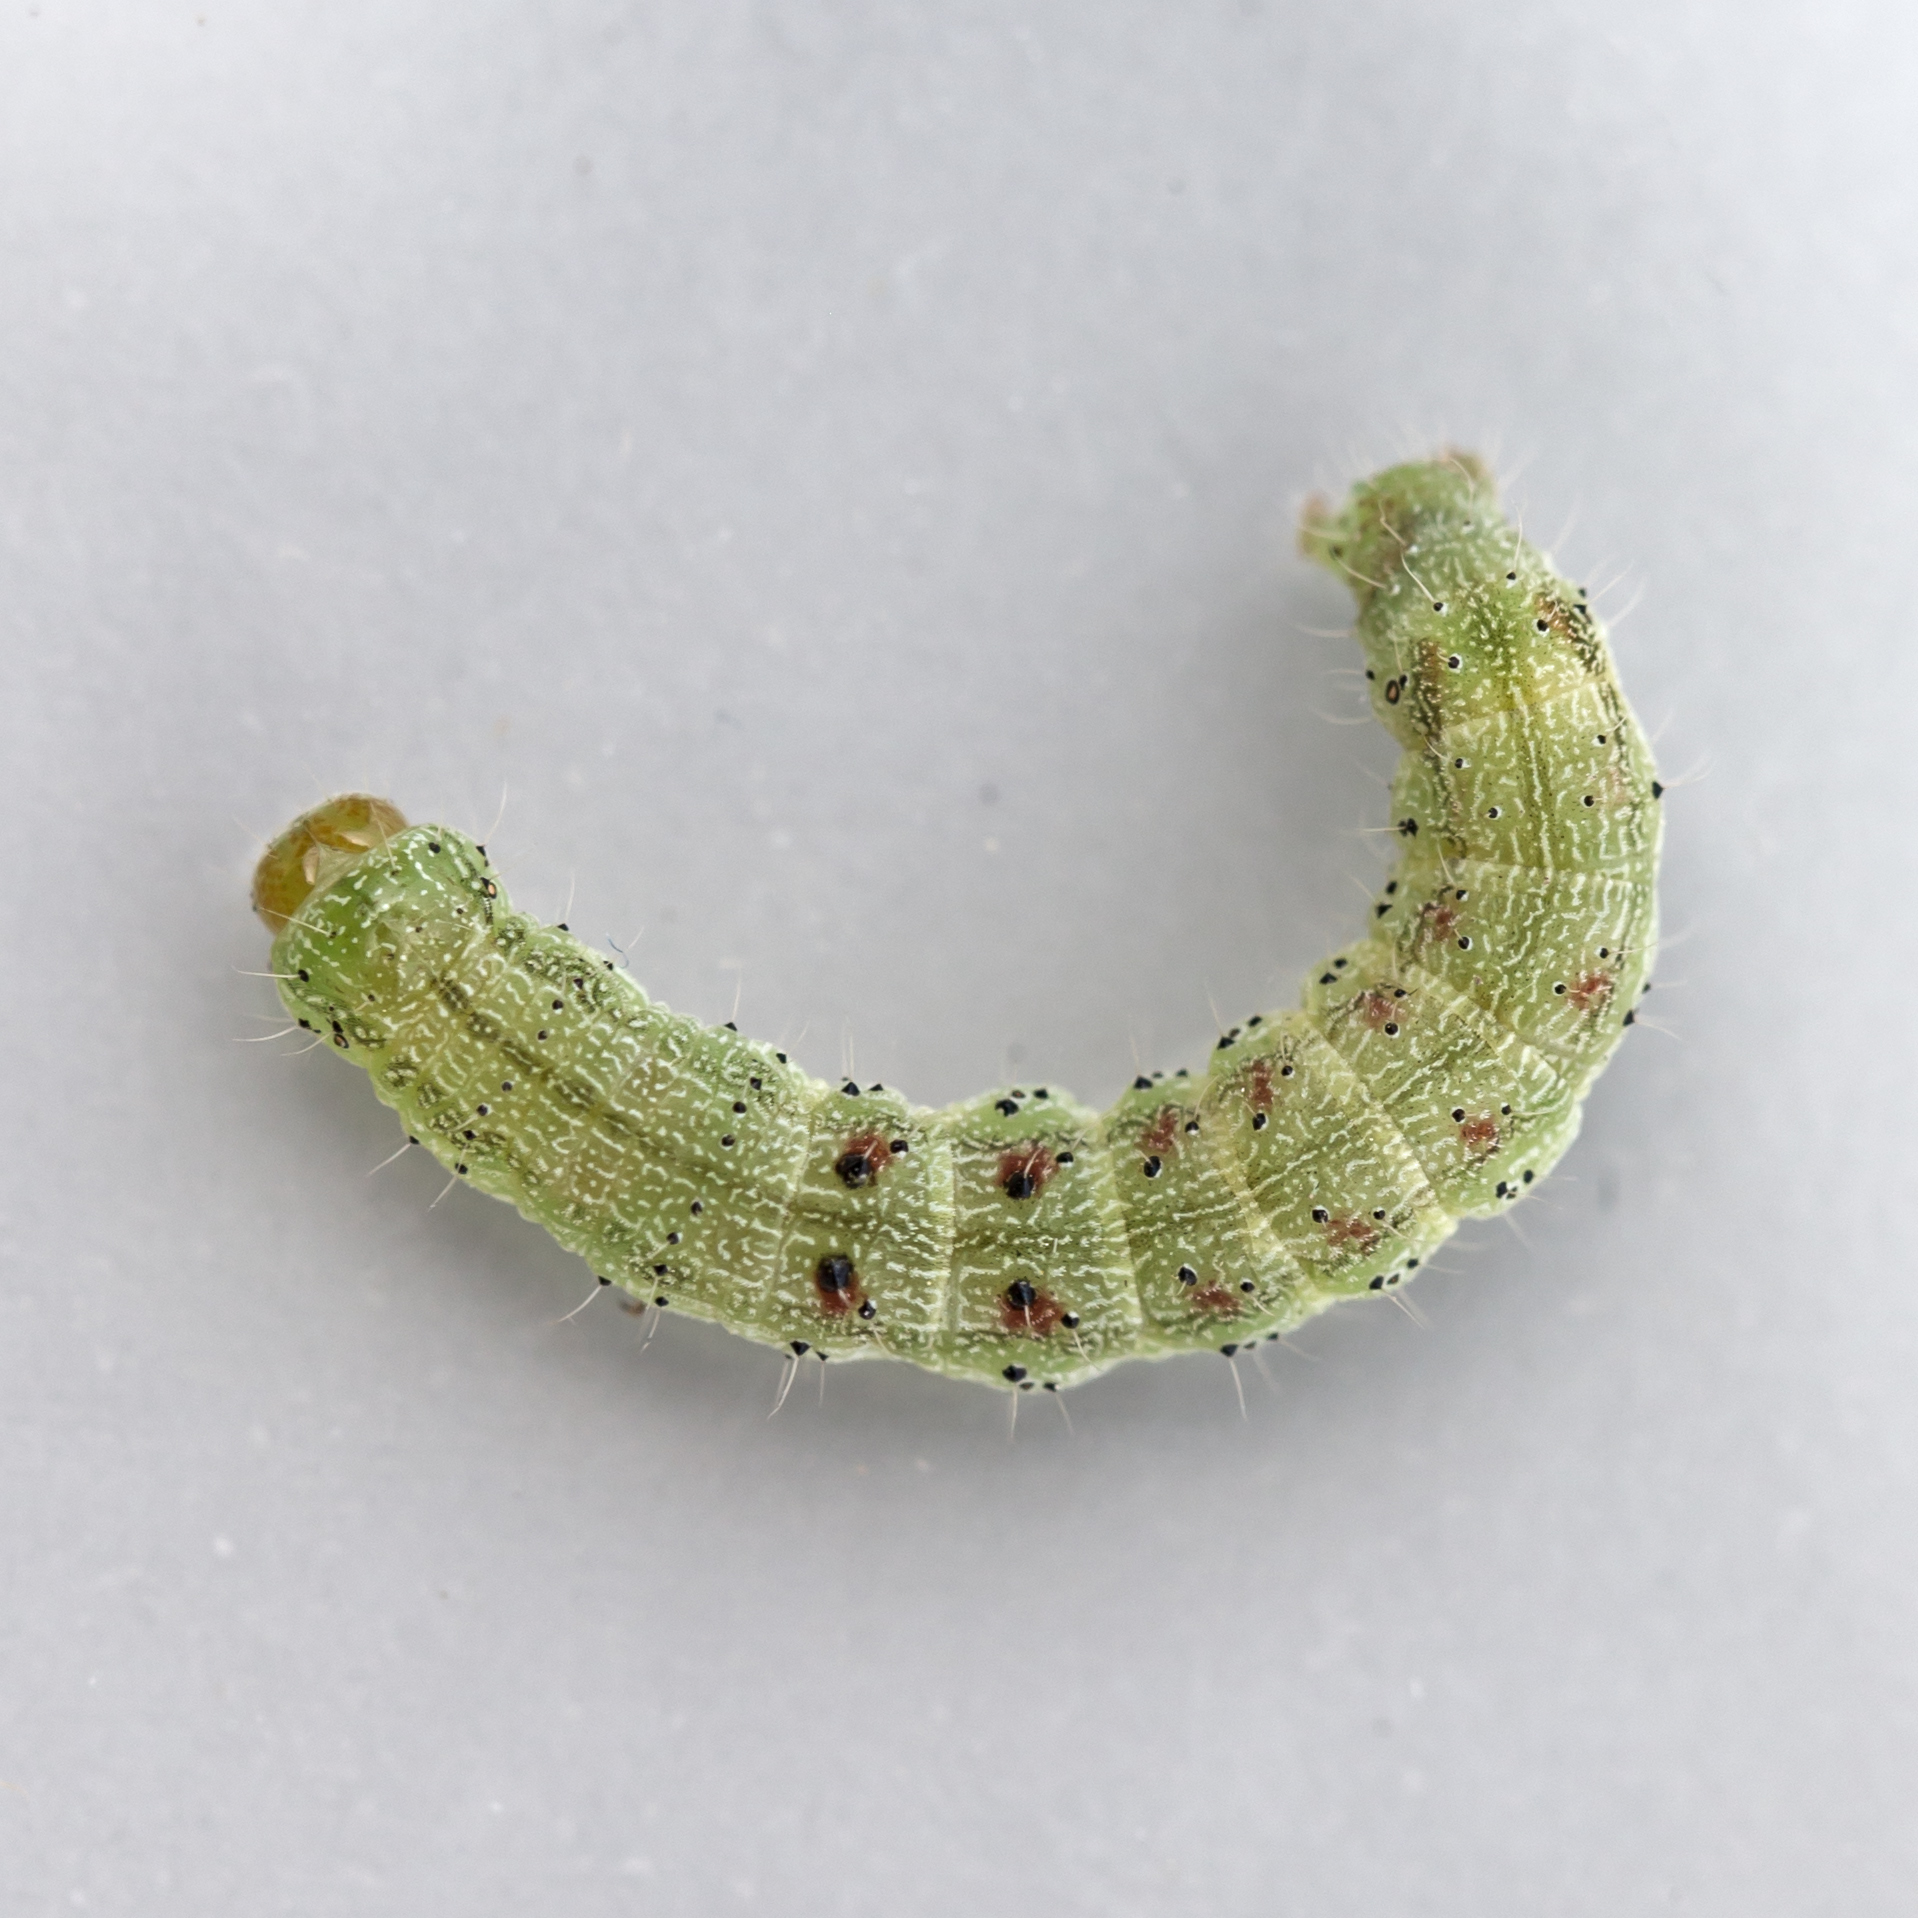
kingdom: Animalia
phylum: Arthropoda
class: Insecta
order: Lepidoptera
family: Noctuidae
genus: Chloridea
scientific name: Chloridea virescens
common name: Tobacco budworm
